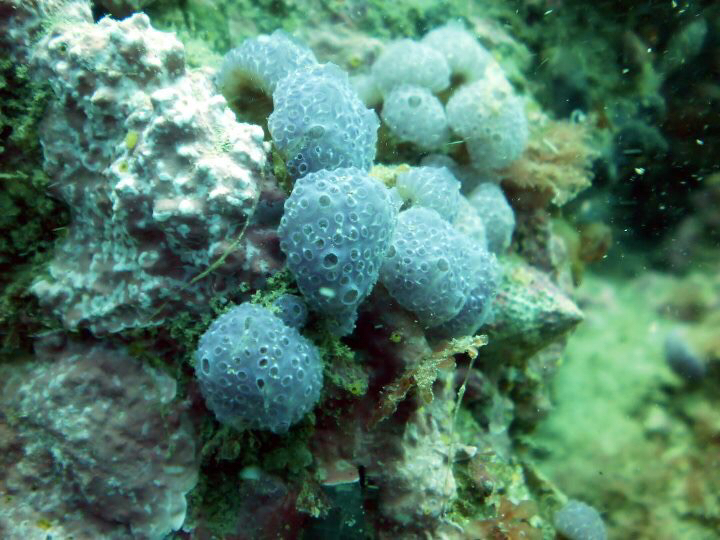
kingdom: Animalia
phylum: Chordata
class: Ascidiacea
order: Aplousobranchia
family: Holozoidae
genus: Hypsistozoa
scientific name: Hypsistozoa fasmeriana
